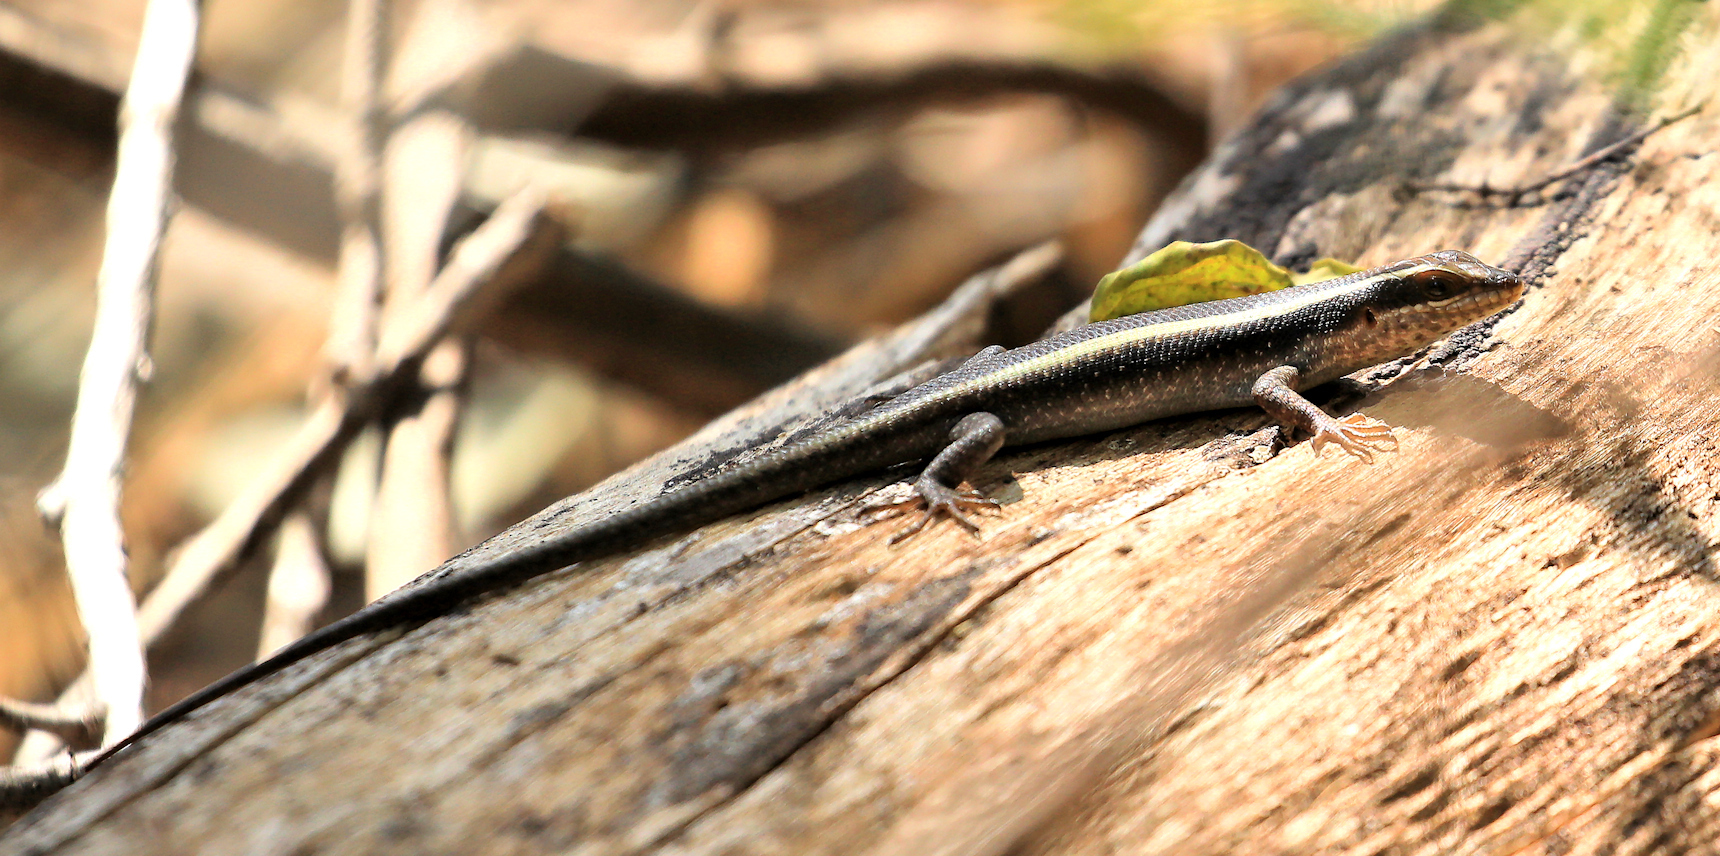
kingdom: Animalia
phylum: Chordata
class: Squamata
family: Scincidae
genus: Trachylepis
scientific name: Trachylepis striata
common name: African striped mabuya
